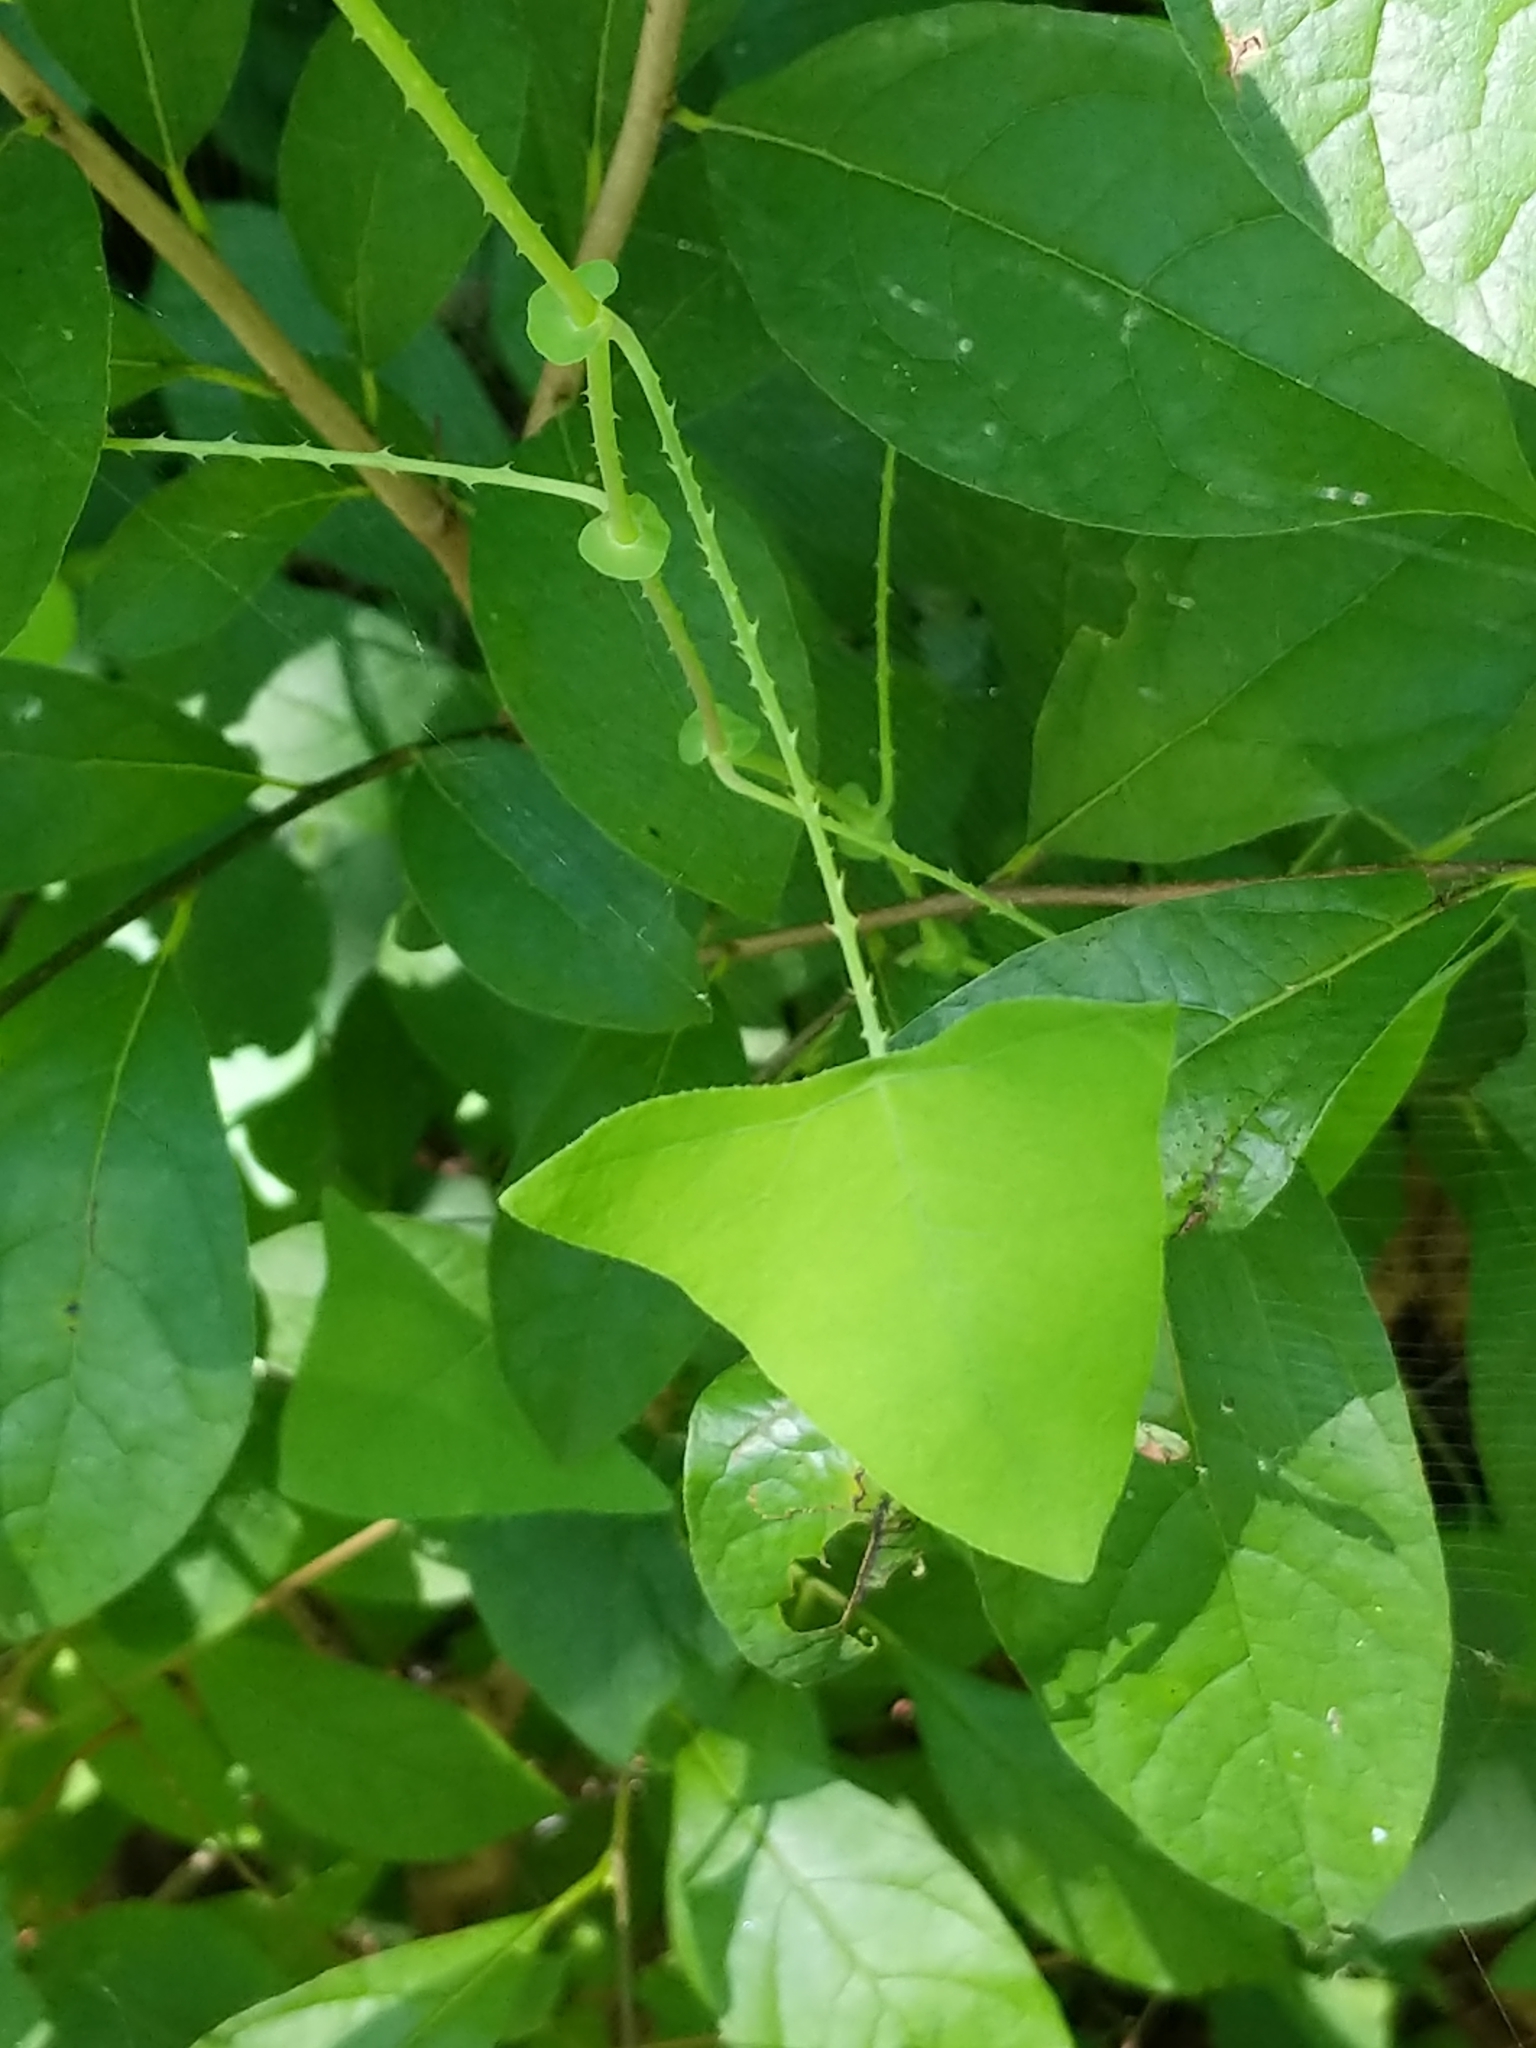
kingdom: Plantae
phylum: Tracheophyta
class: Magnoliopsida
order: Caryophyllales
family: Polygonaceae
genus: Persicaria
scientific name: Persicaria perfoliata
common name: Asiatic tearthumb
